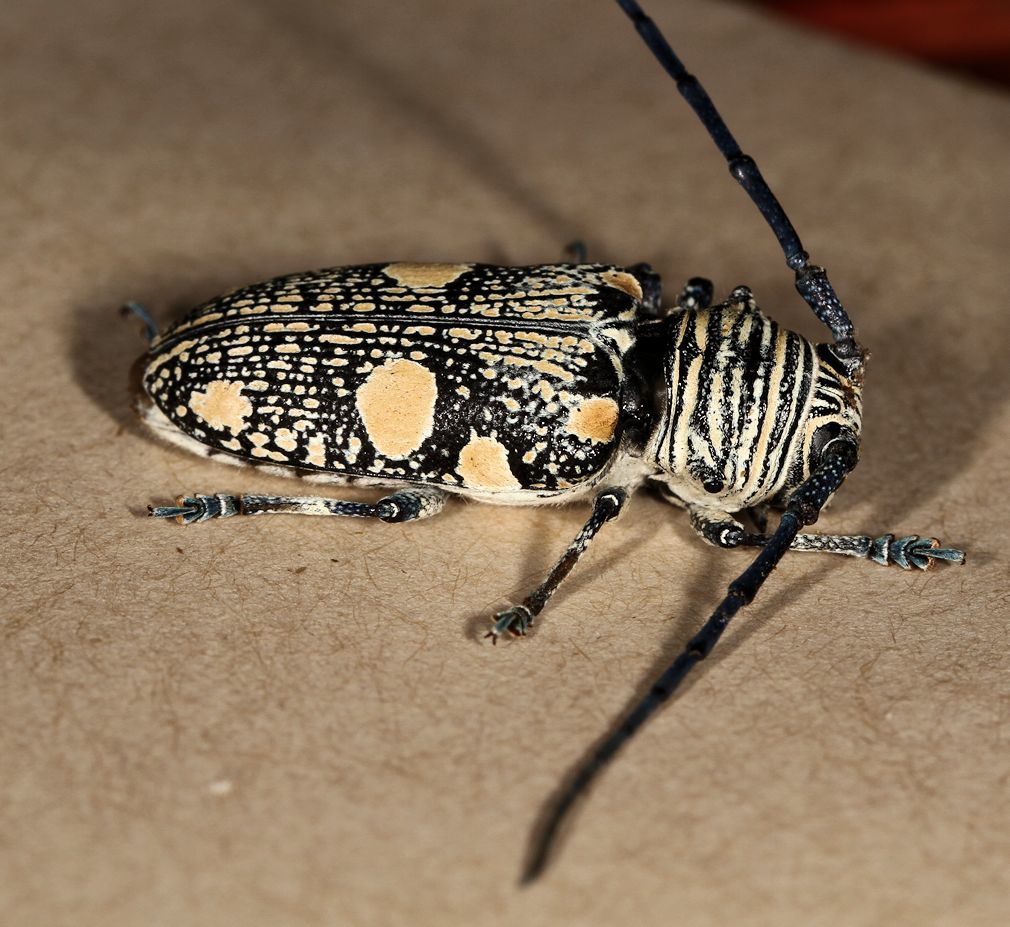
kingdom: Animalia
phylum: Arthropoda
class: Insecta
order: Coleoptera
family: Cerambycidae
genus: Zographus
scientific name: Zographus nivisparsus
